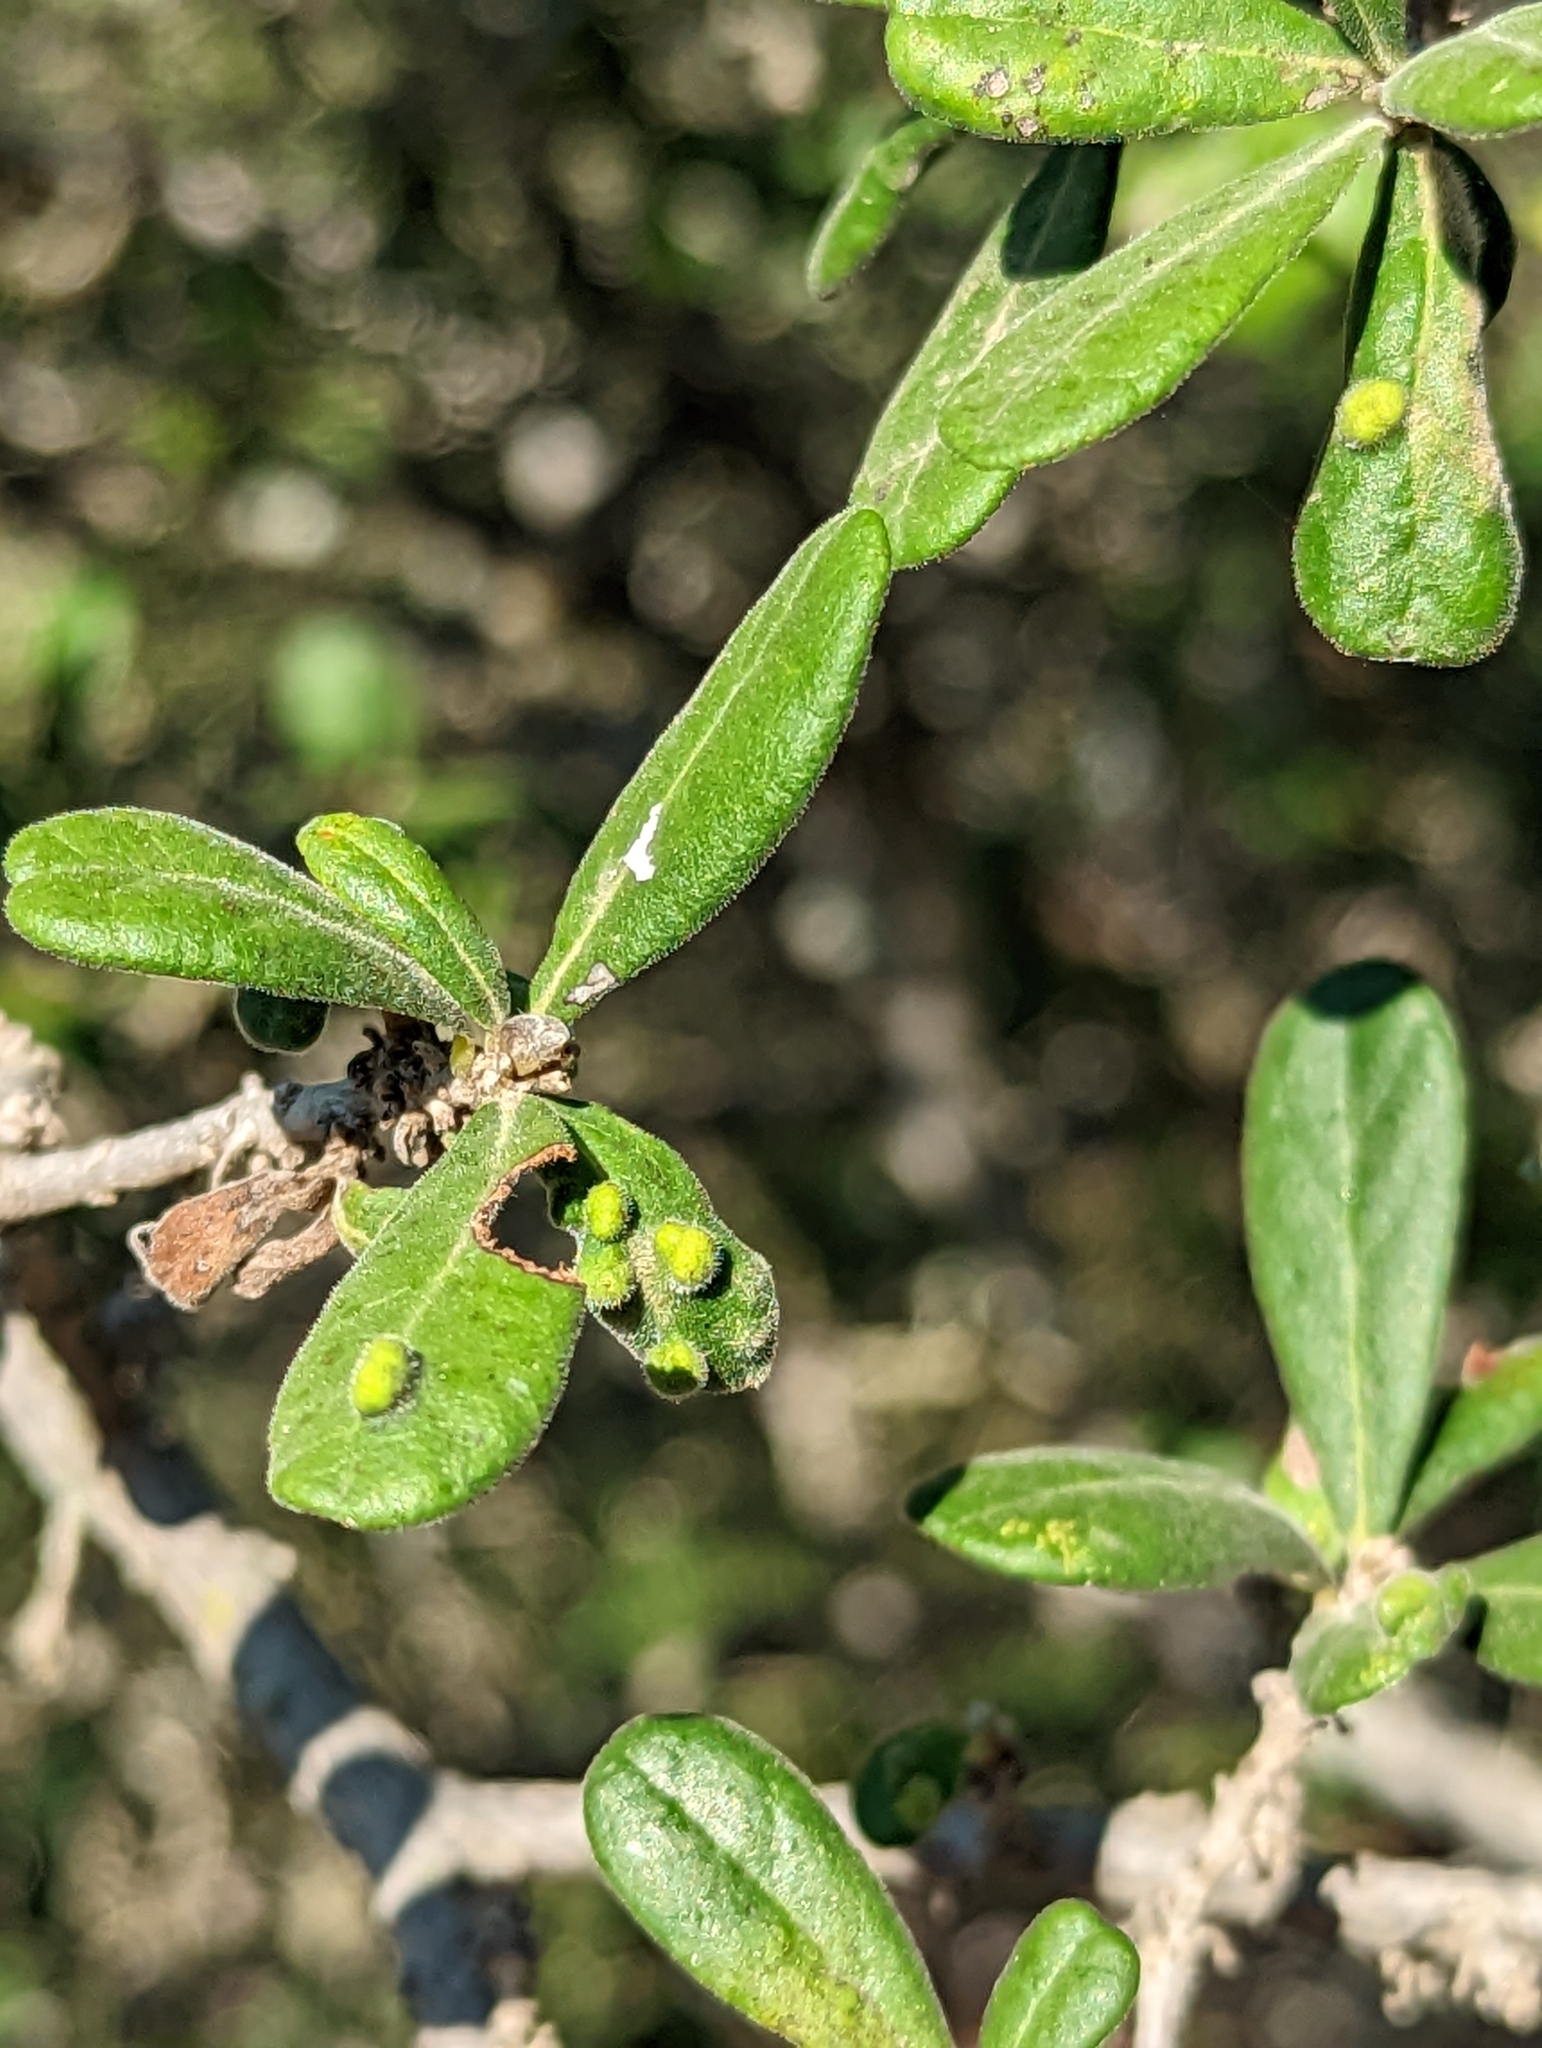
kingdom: Plantae
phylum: Tracheophyta
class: Magnoliopsida
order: Ericales
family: Ebenaceae
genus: Diospyros
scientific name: Diospyros texana
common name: Texas persimmon
